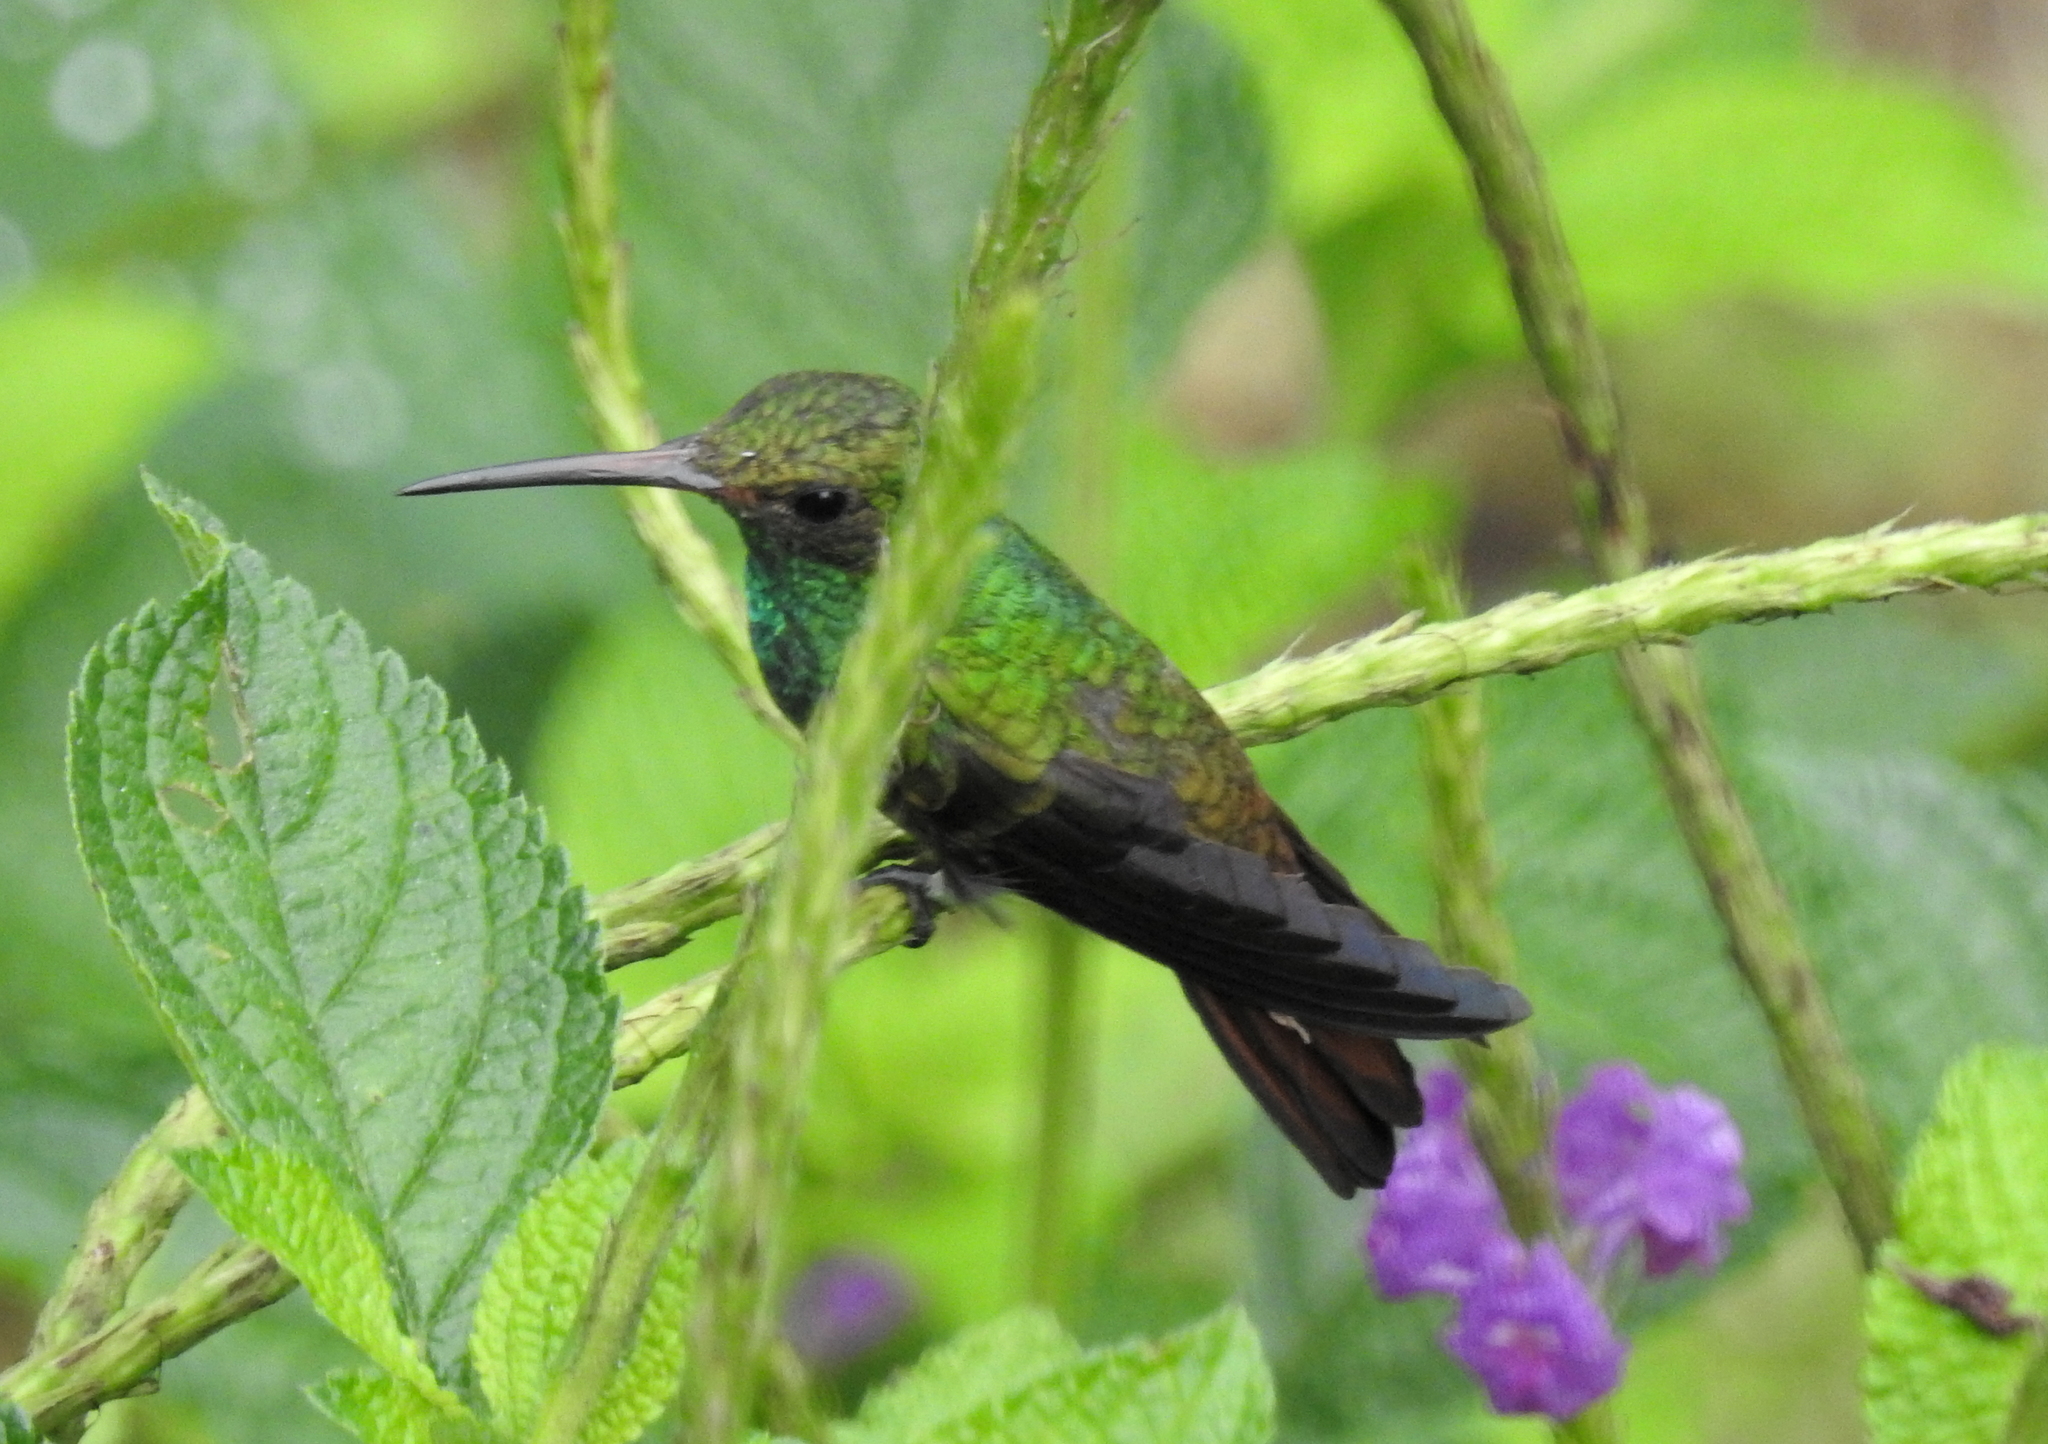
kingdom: Animalia
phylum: Chordata
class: Aves
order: Apodiformes
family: Trochilidae
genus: Amazilia
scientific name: Amazilia tzacatl
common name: Rufous-tailed hummingbird
